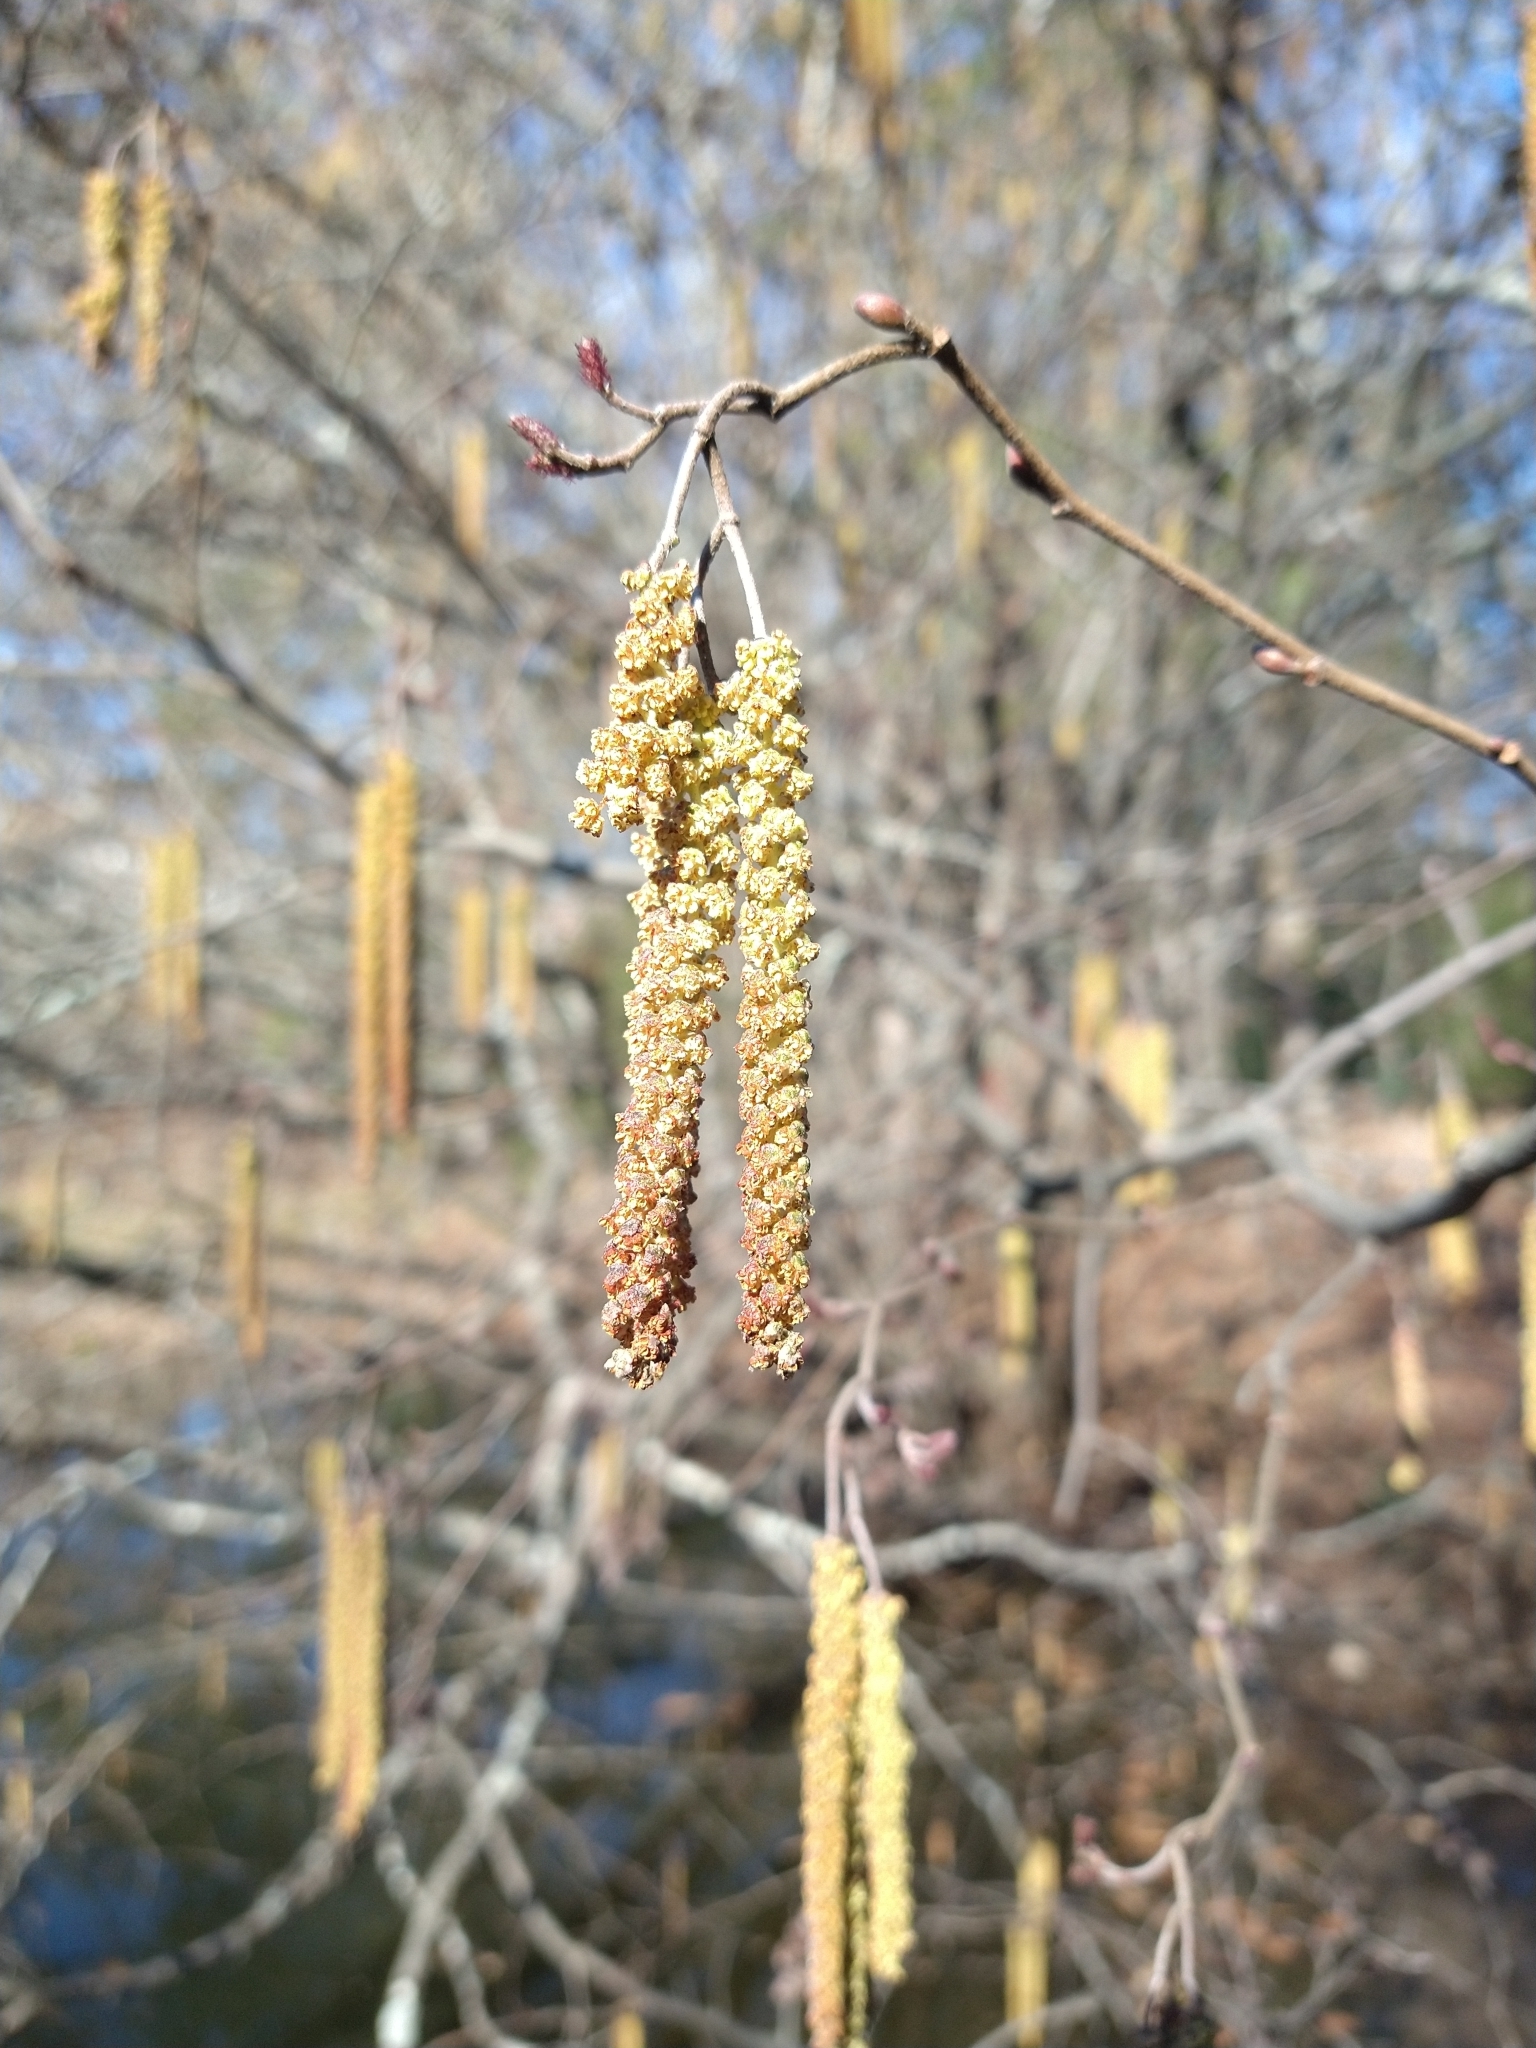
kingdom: Plantae
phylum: Tracheophyta
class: Magnoliopsida
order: Fagales
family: Betulaceae
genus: Alnus
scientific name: Alnus serrulata
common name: Hazel alder
